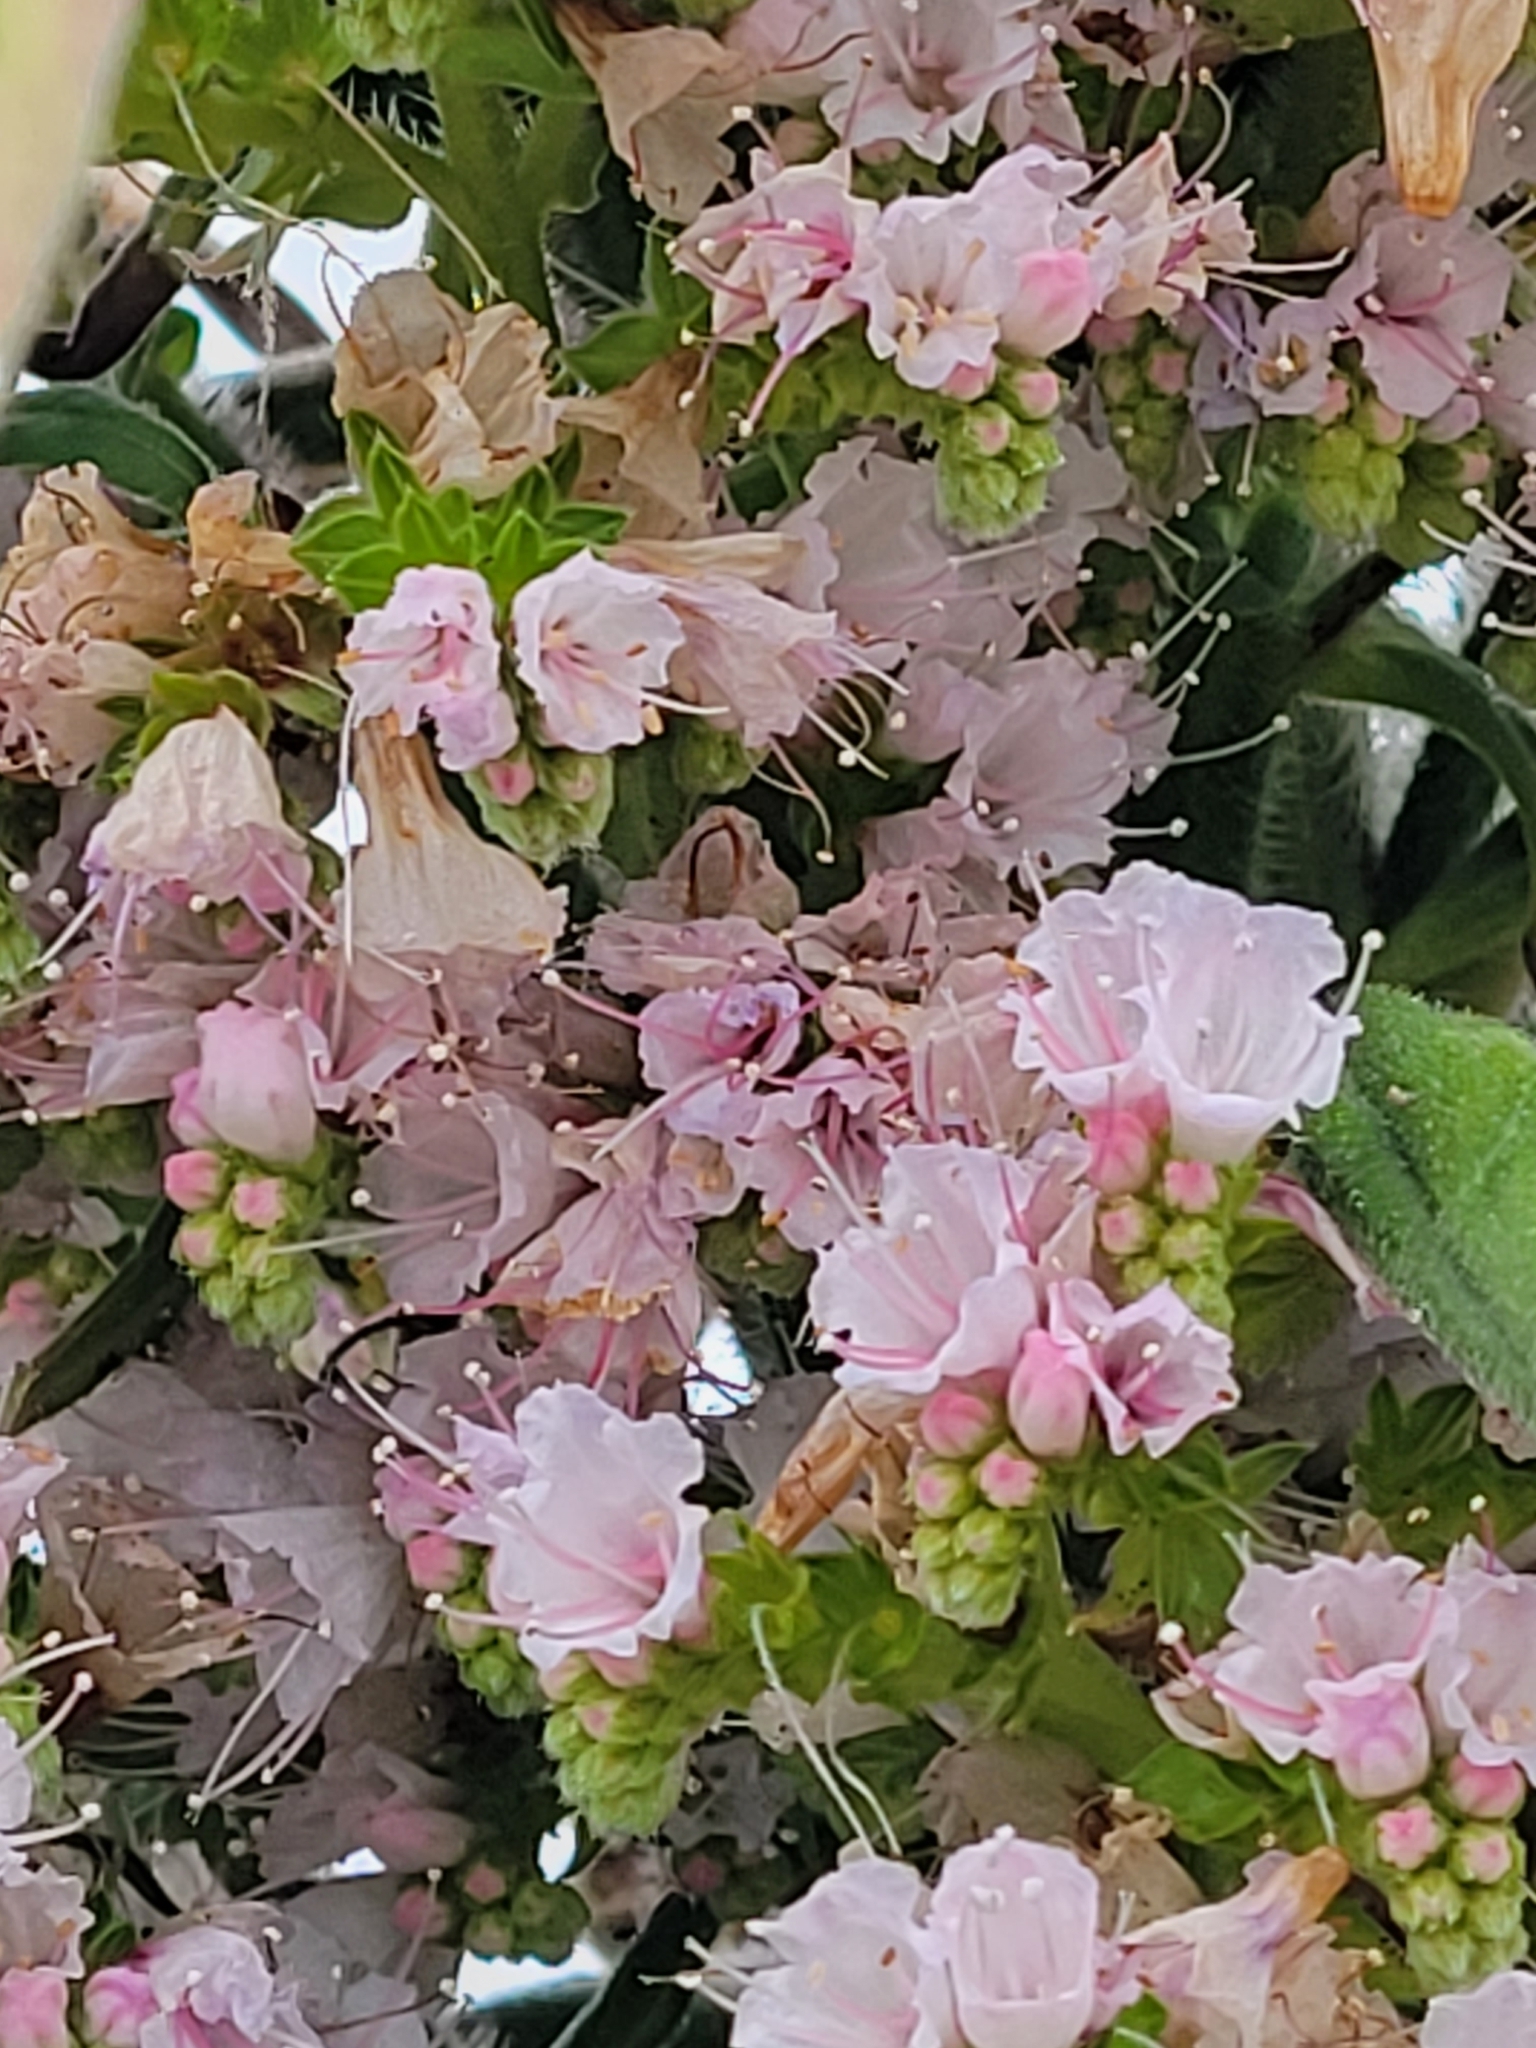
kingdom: Plantae
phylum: Tracheophyta
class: Magnoliopsida
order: Boraginales
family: Boraginaceae
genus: Echium
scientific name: Echium pininana
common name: Giant viper's-bugloss
